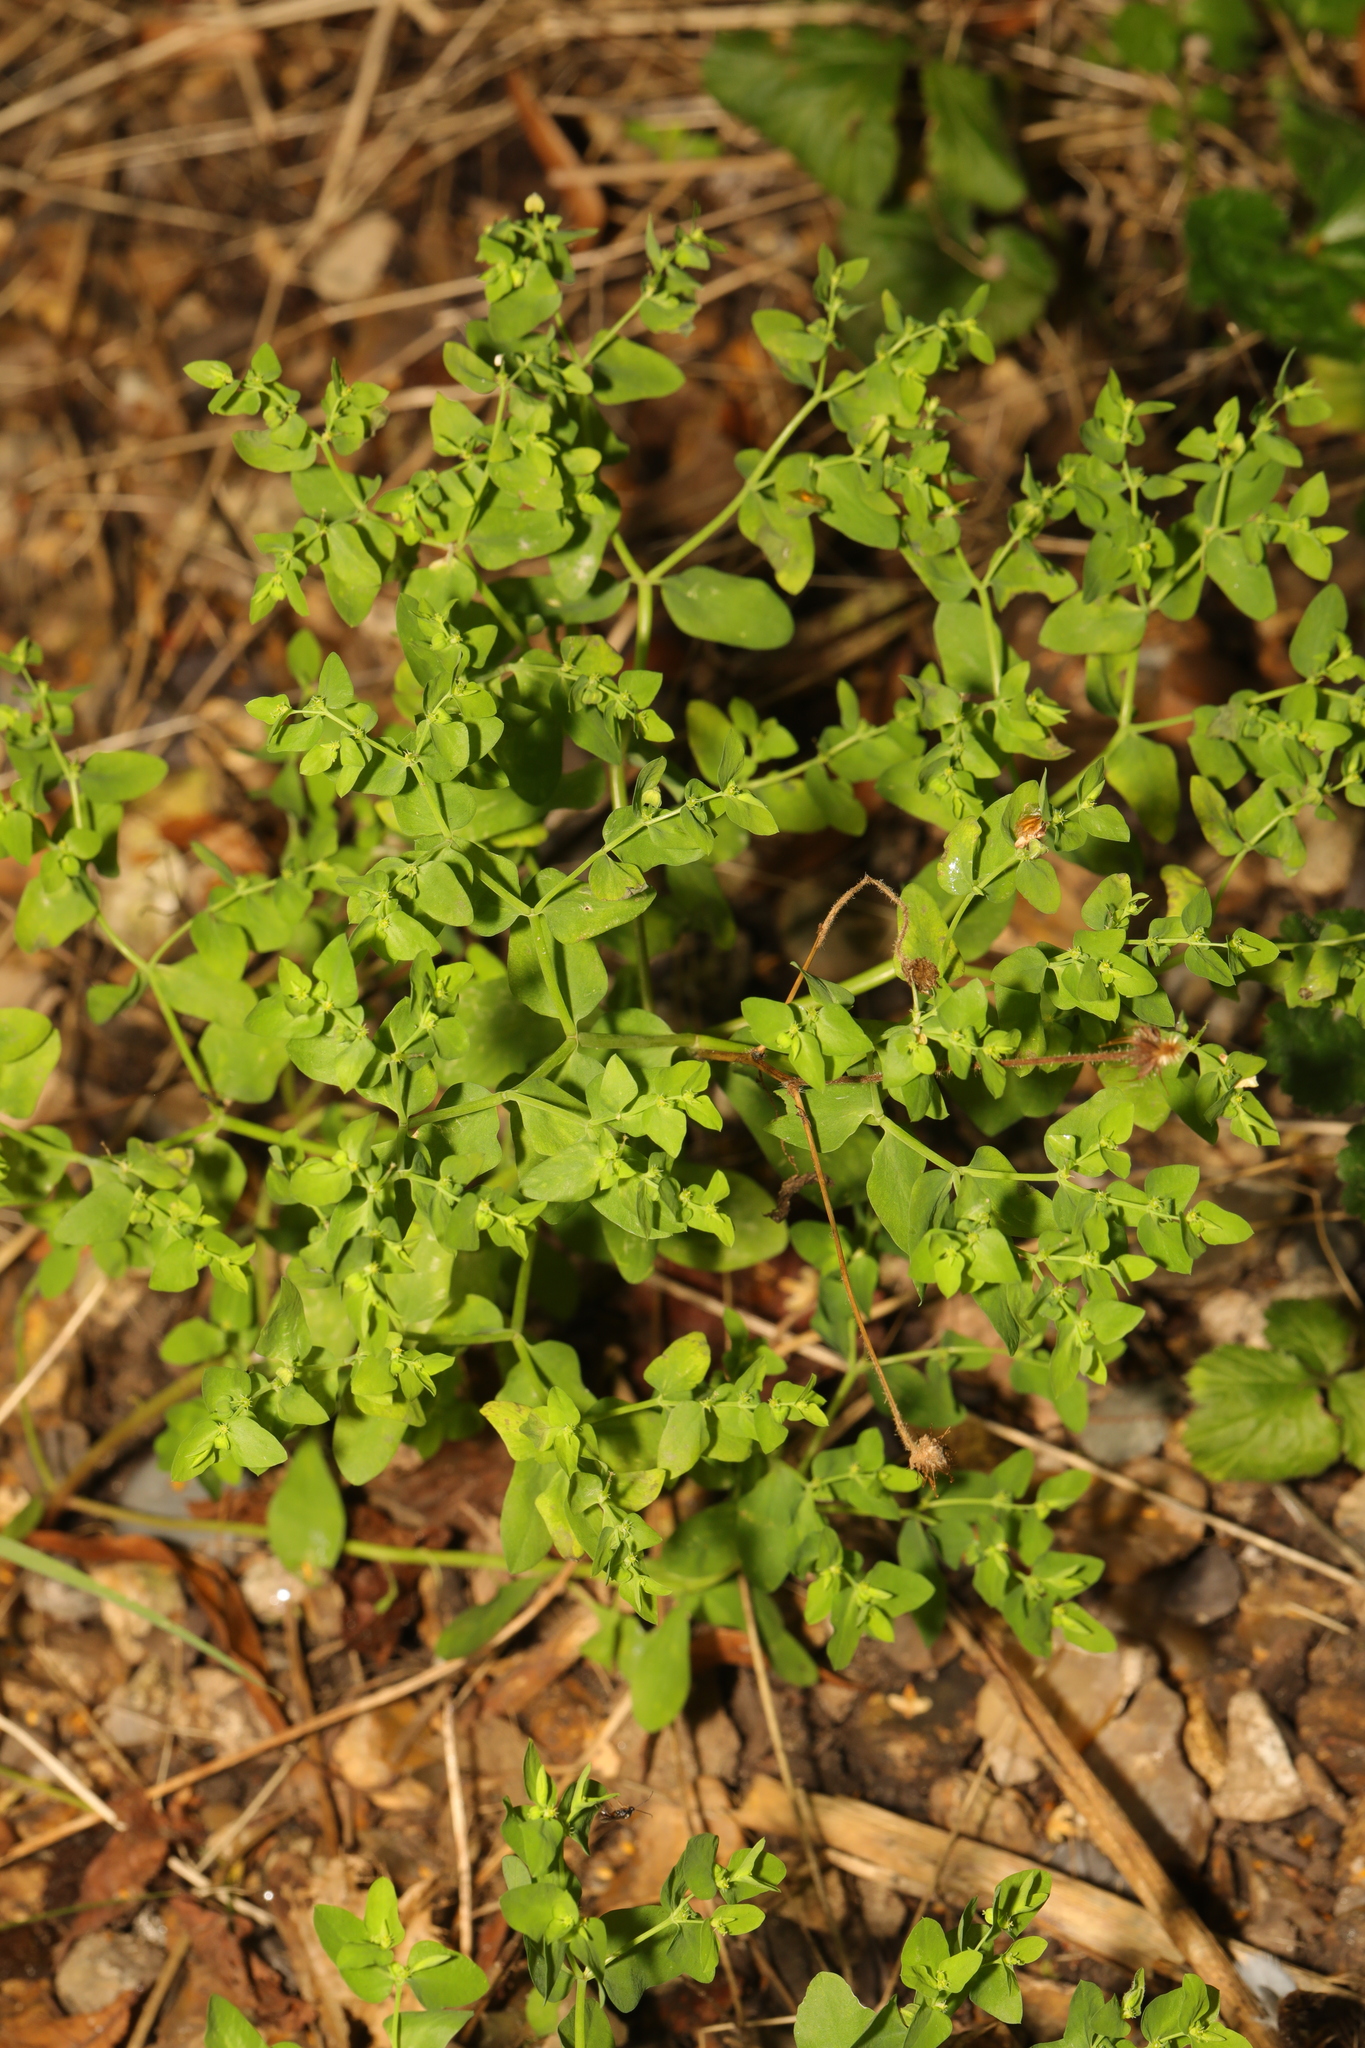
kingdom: Plantae
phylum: Tracheophyta
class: Magnoliopsida
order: Malpighiales
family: Euphorbiaceae
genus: Euphorbia
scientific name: Euphorbia peplus
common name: Petty spurge
